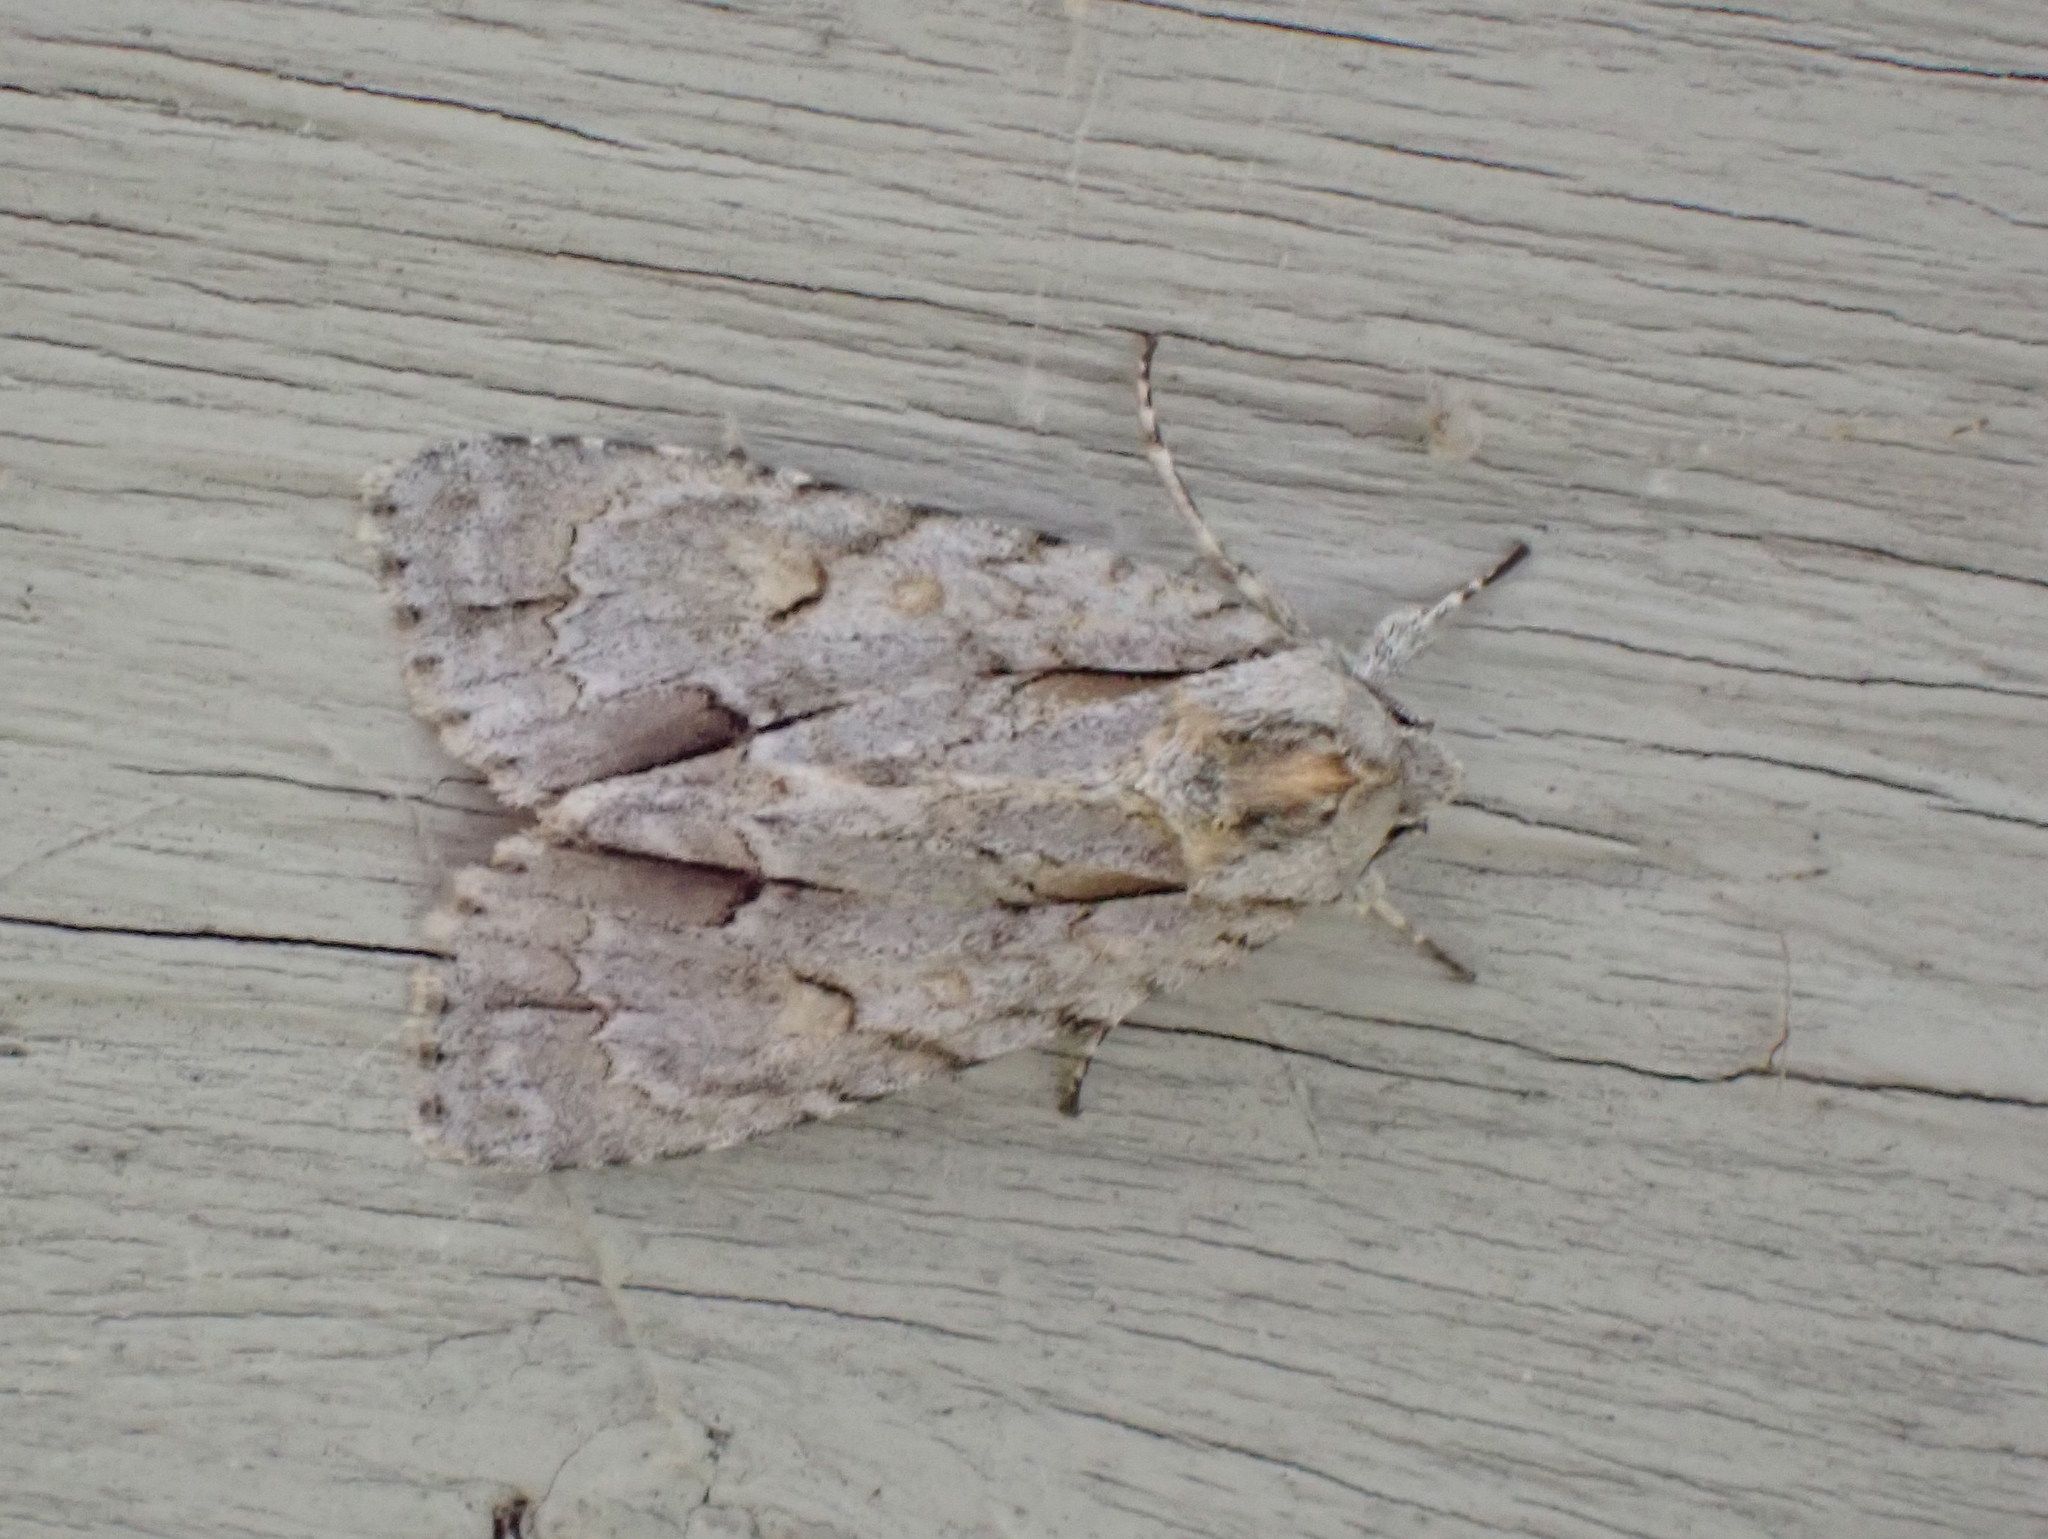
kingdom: Animalia
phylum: Arthropoda
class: Insecta
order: Lepidoptera
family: Noctuidae
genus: Acronicta
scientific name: Acronicta morula
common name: Ochre dagger
